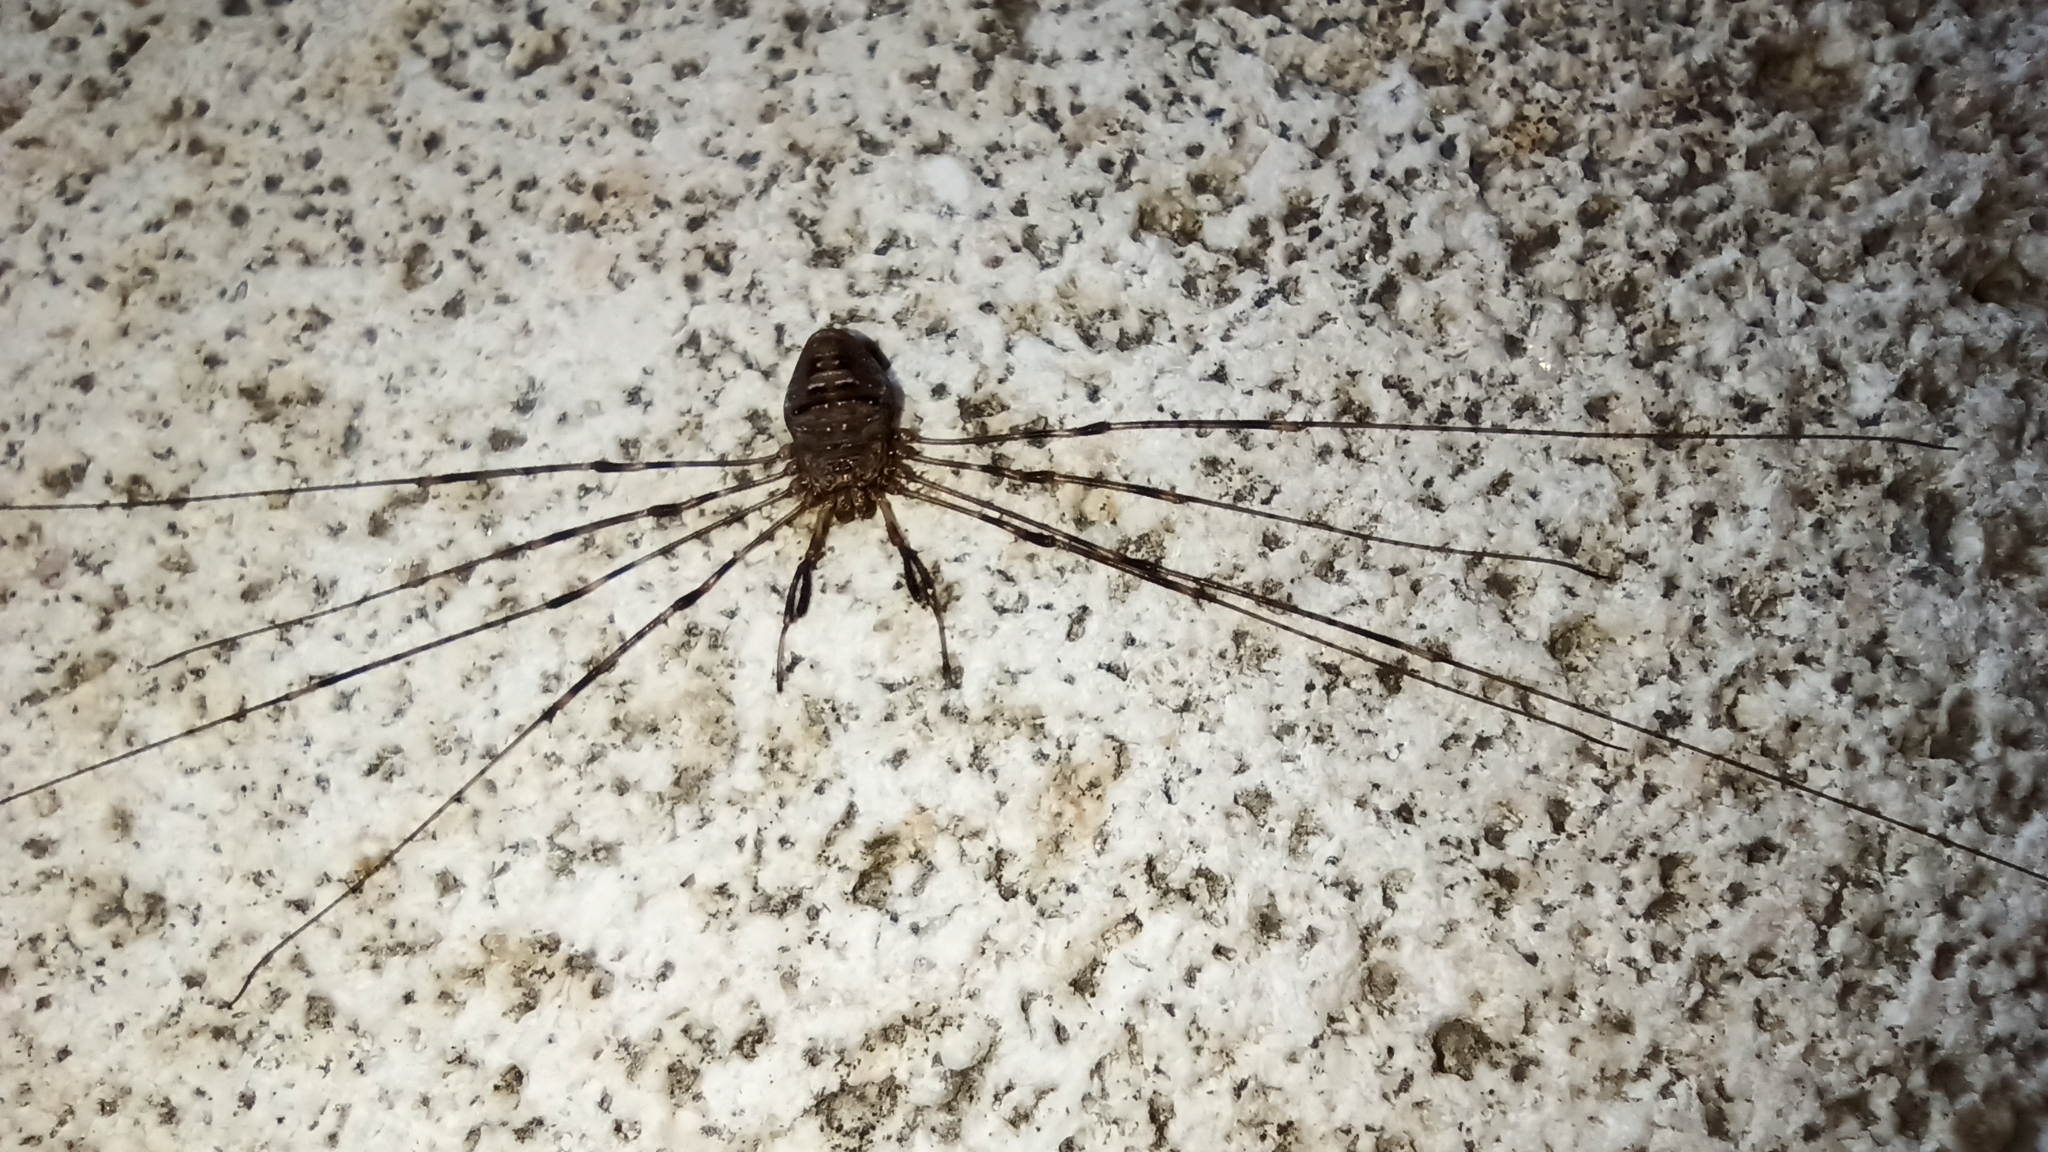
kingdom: Animalia
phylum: Arthropoda
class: Arachnida
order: Opiliones
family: Phalangiidae
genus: Dicranopalpus
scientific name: Dicranopalpus ramosus
